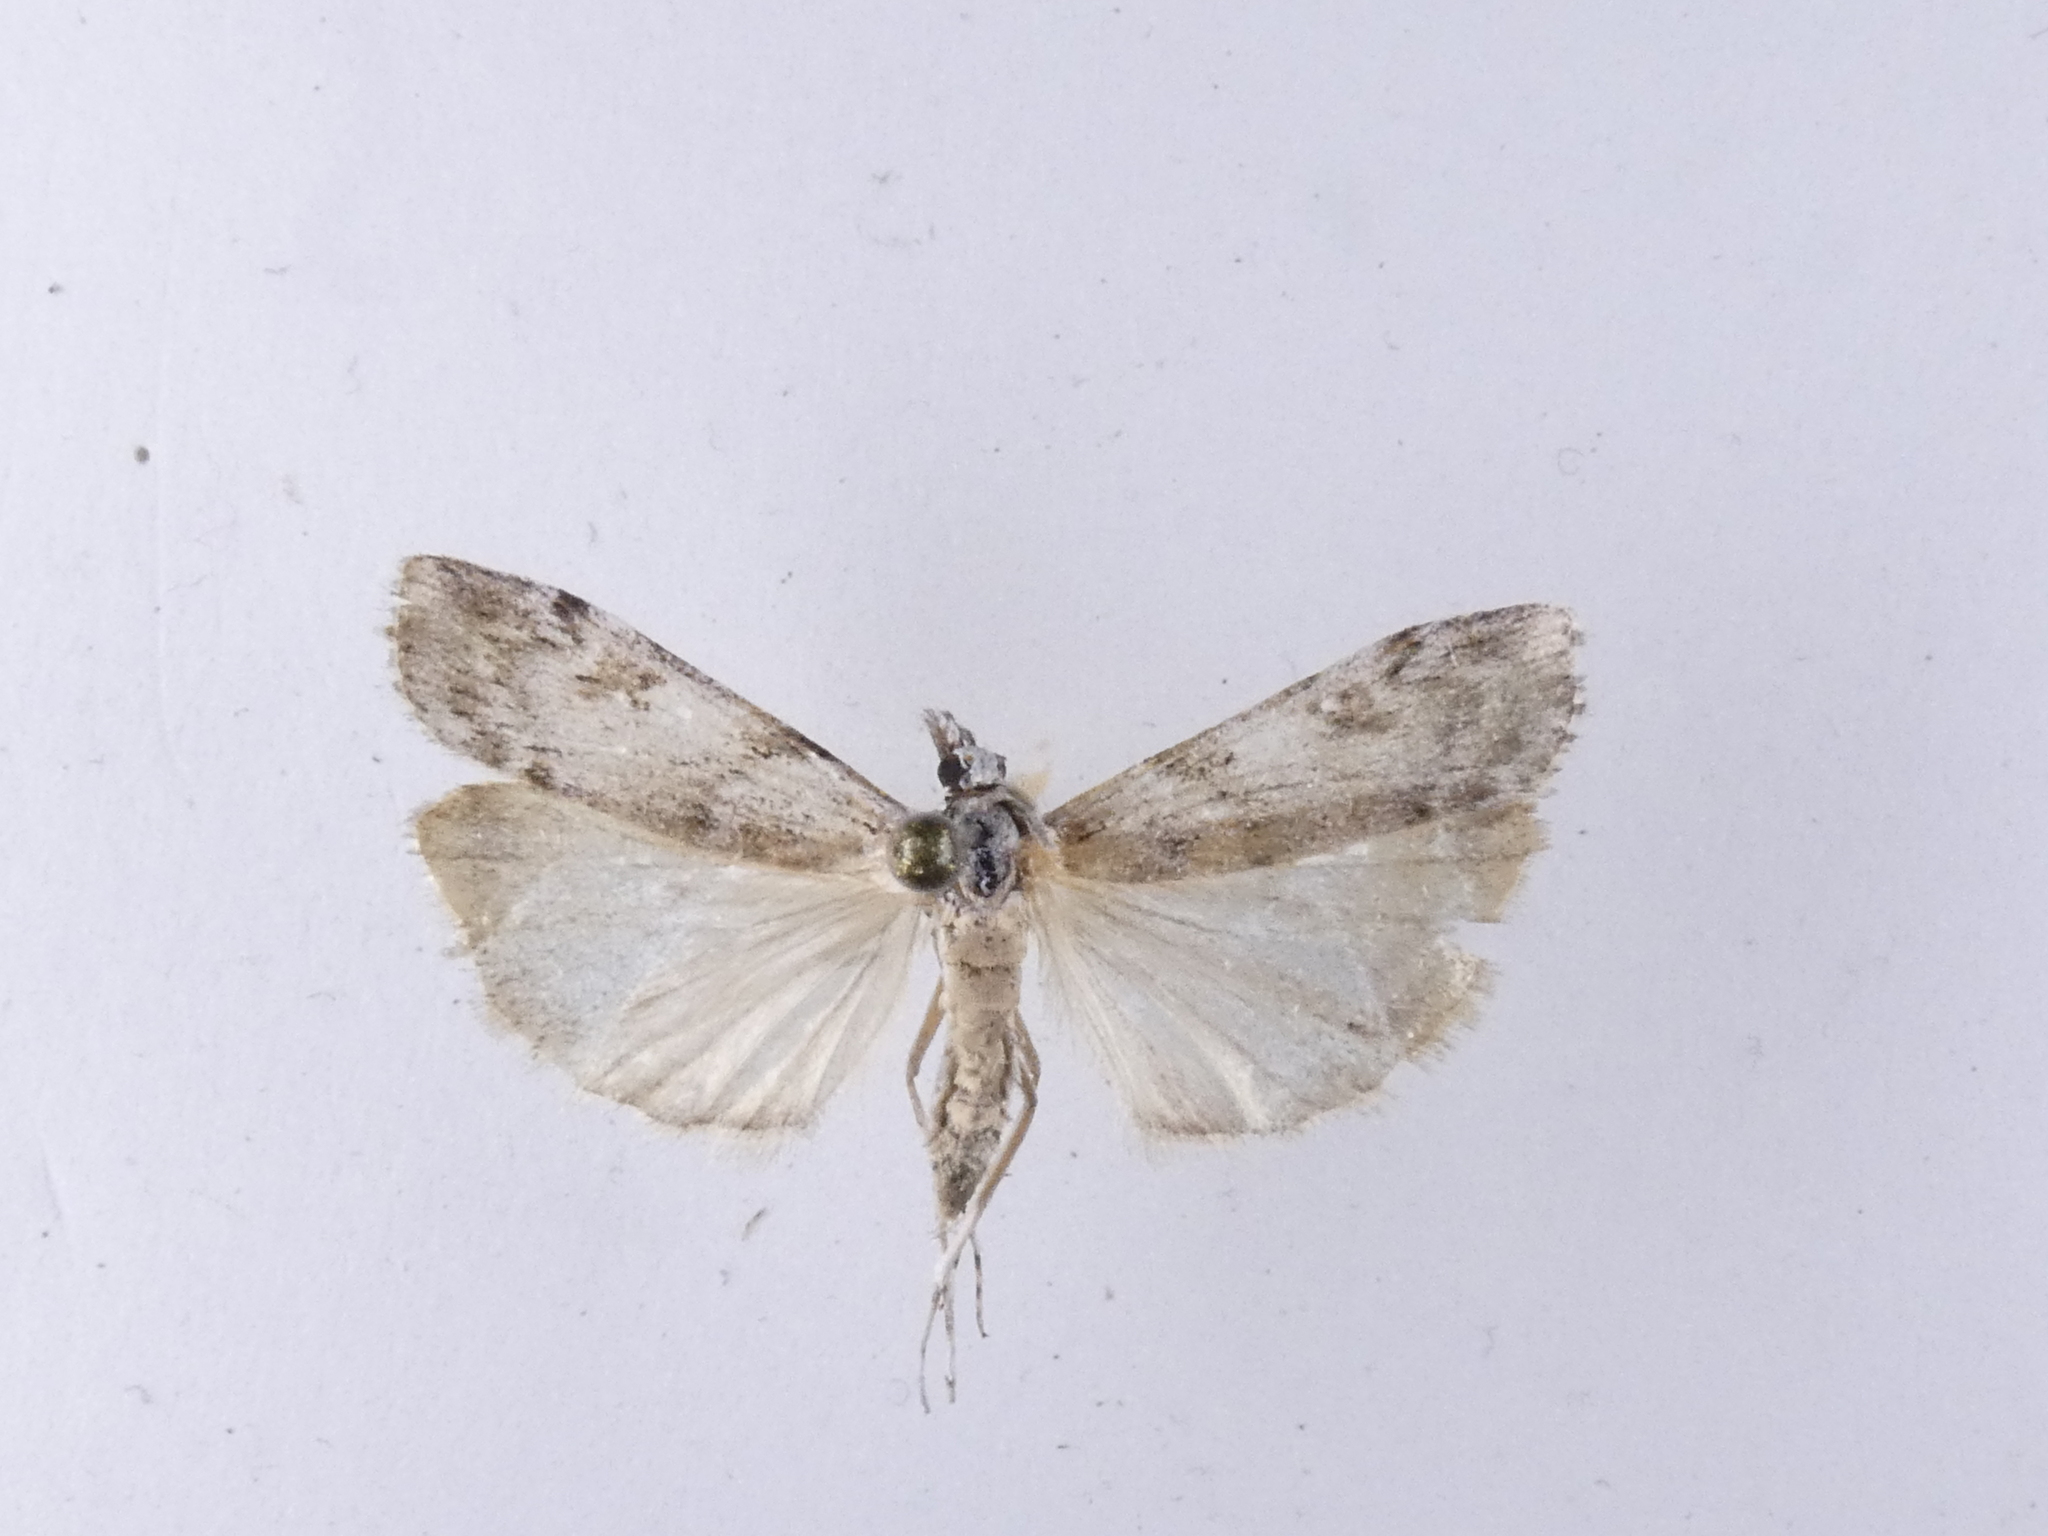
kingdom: Animalia
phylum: Arthropoda
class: Insecta
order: Lepidoptera
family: Crambidae
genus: Scoparia
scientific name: Scoparia halopis
